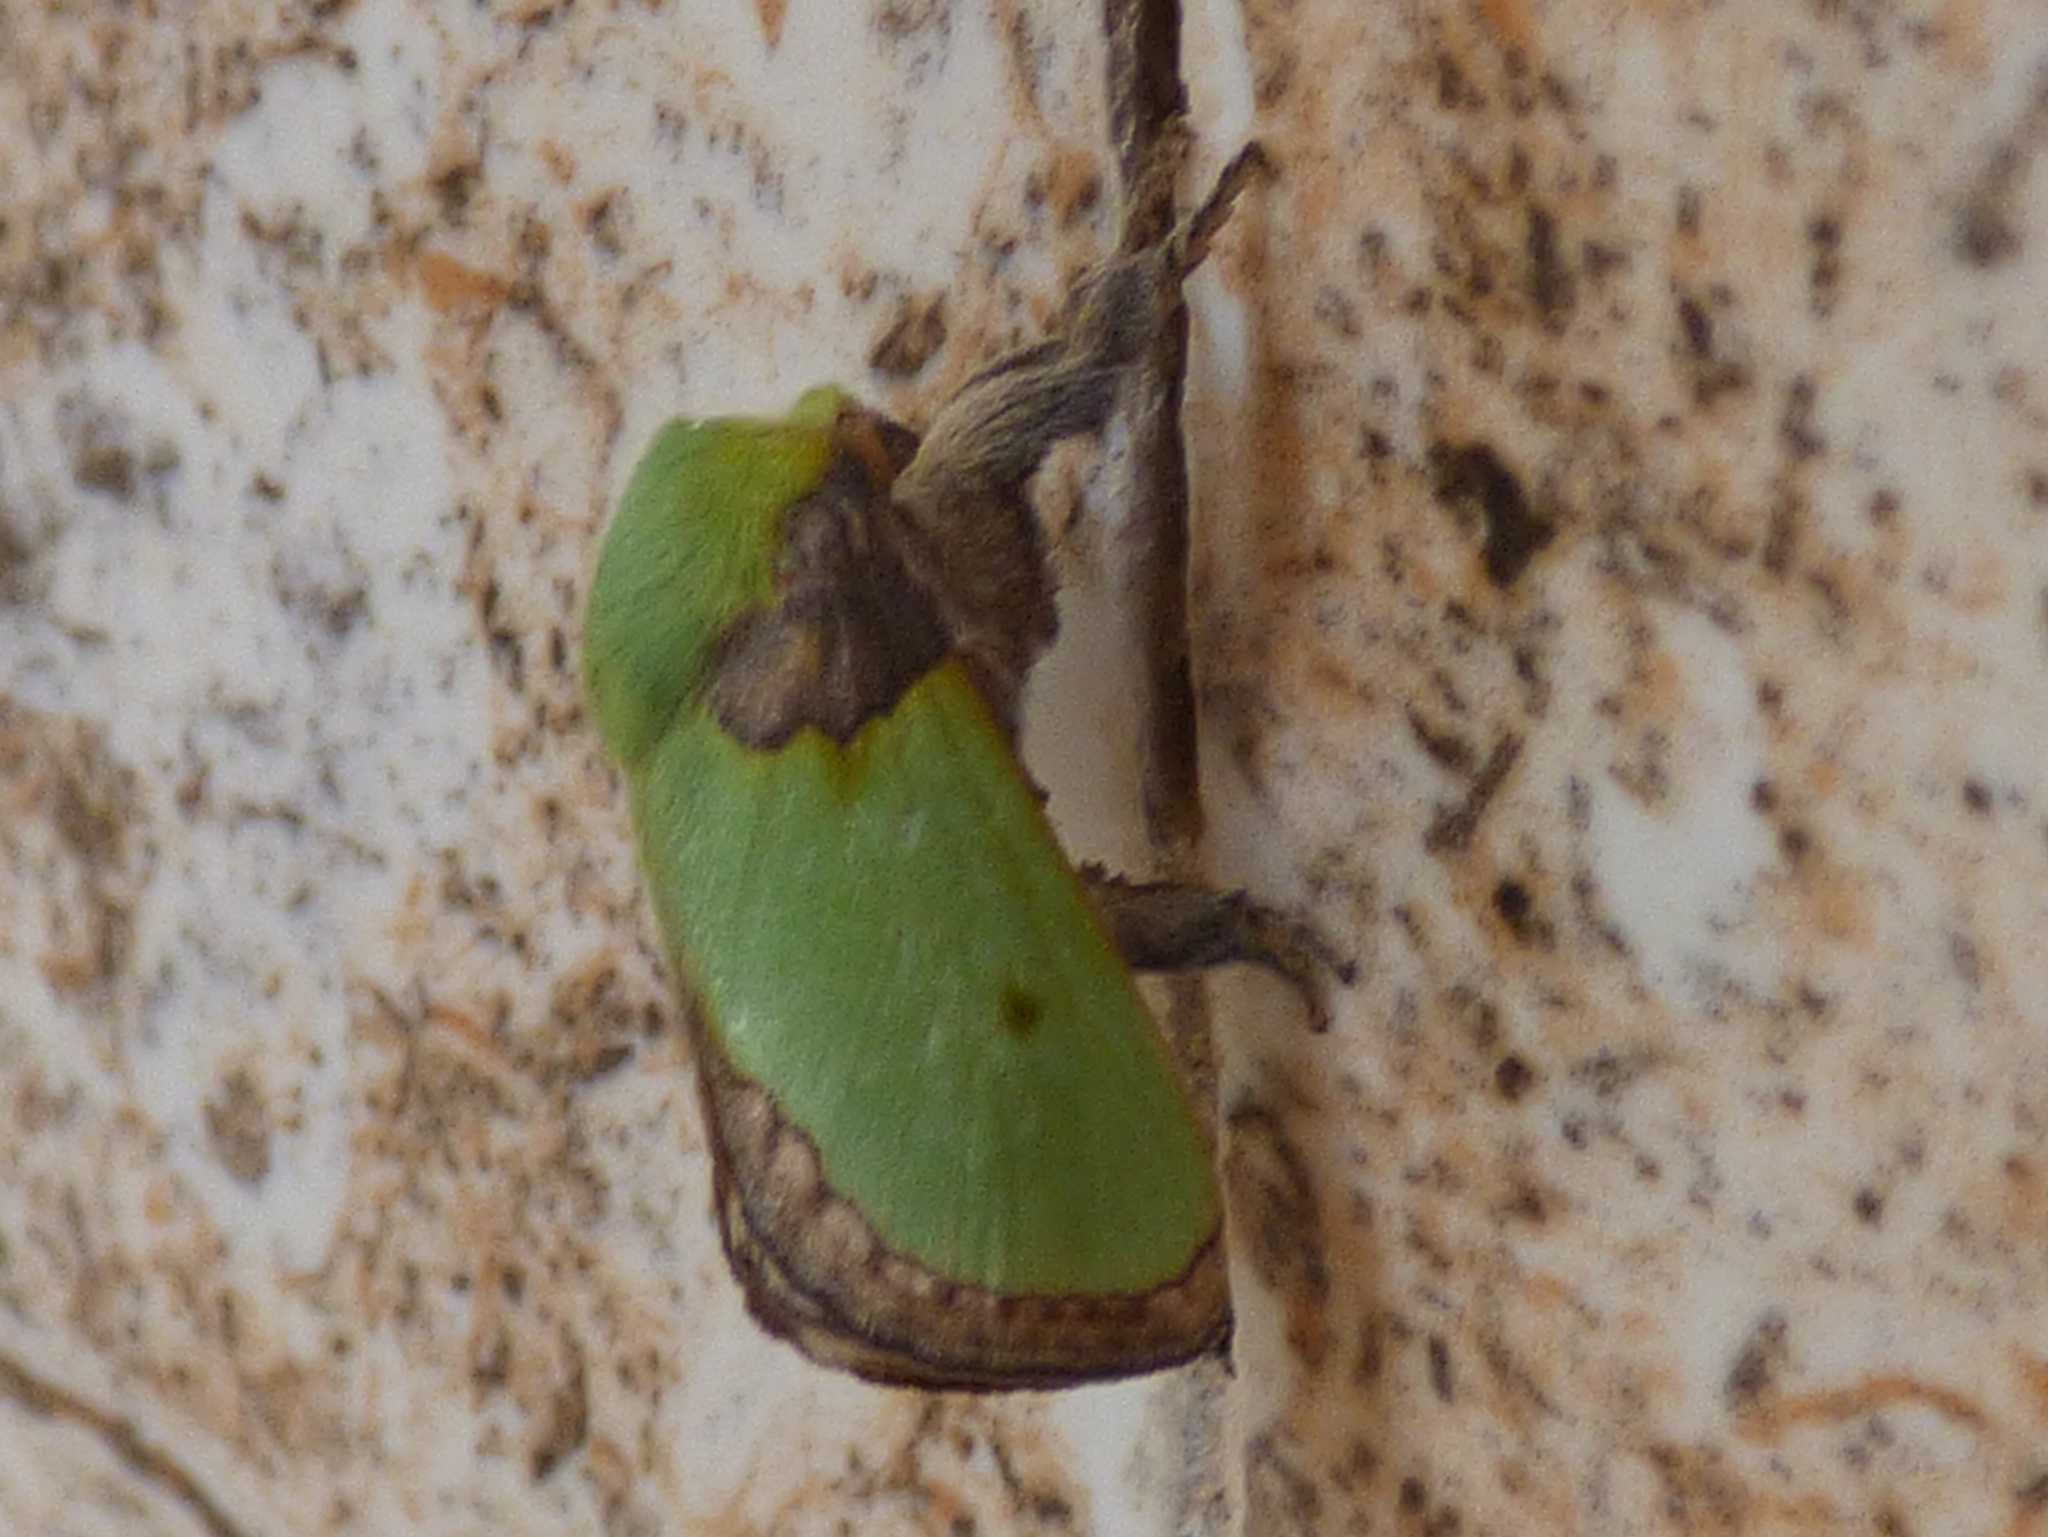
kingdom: Animalia
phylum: Arthropoda
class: Insecta
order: Lepidoptera
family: Limacodidae
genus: Parasa
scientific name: Parasa viridissima
